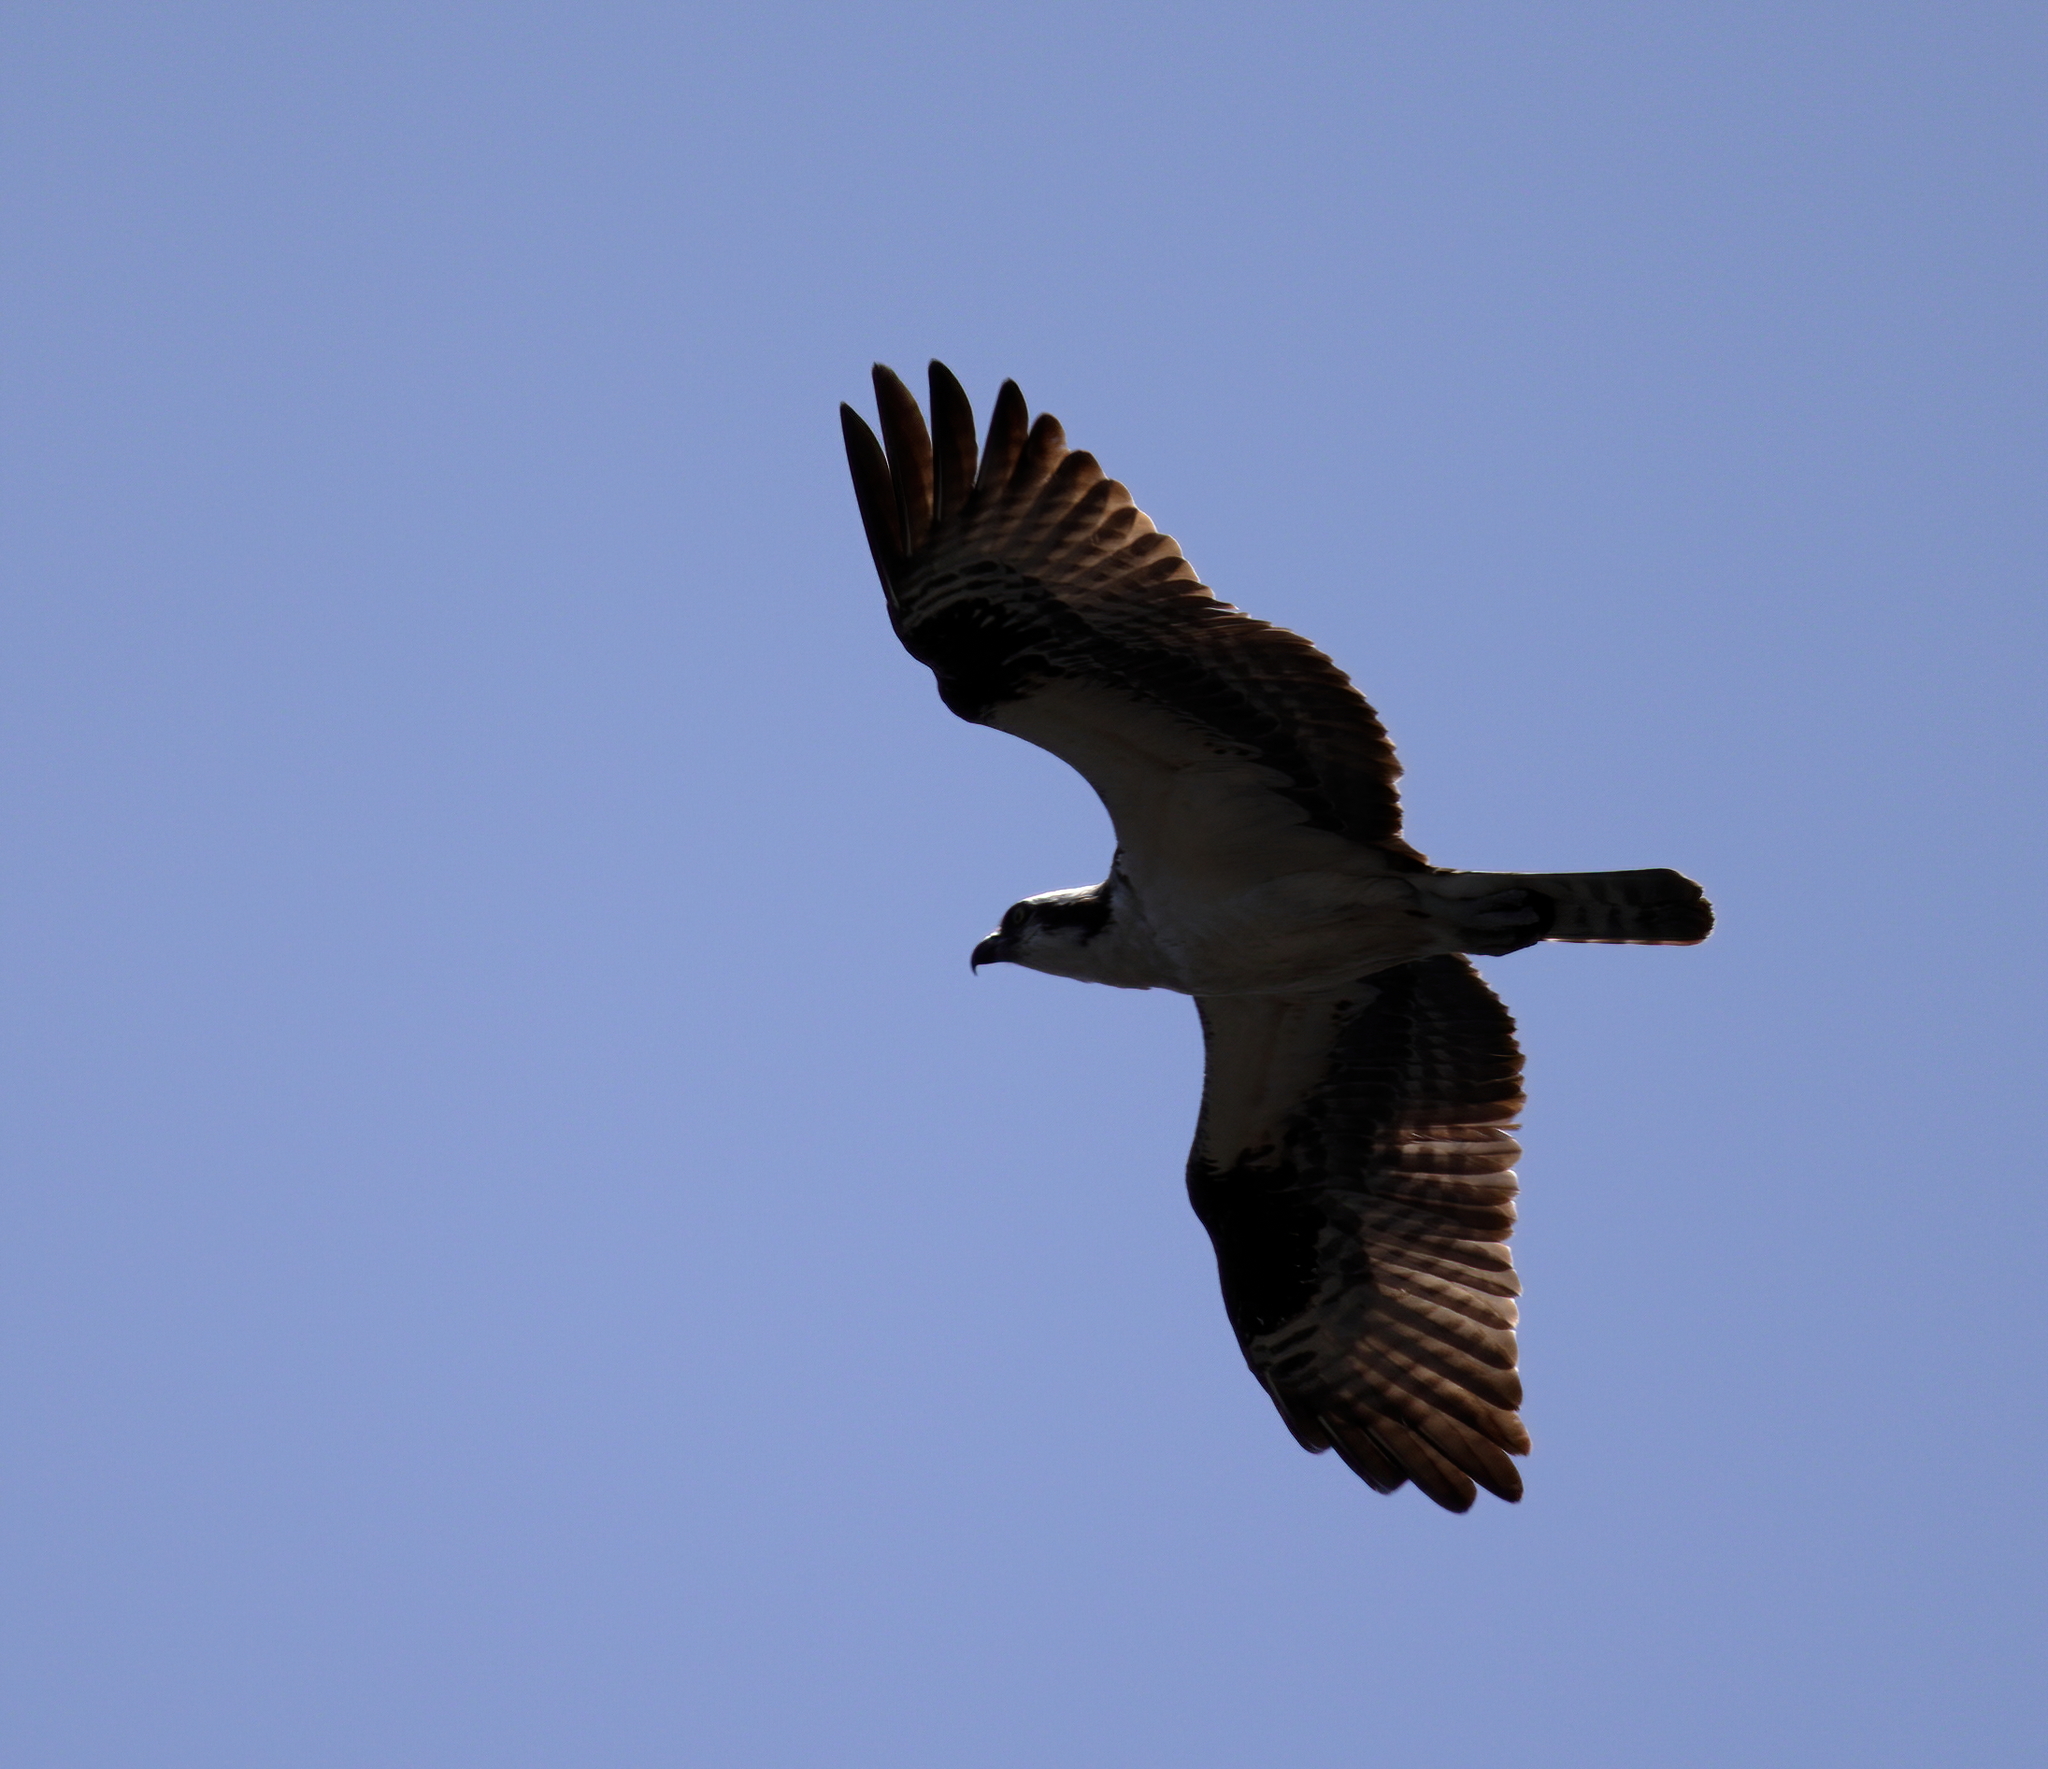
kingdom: Animalia
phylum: Chordata
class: Aves
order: Accipitriformes
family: Pandionidae
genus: Pandion
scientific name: Pandion haliaetus
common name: Osprey
